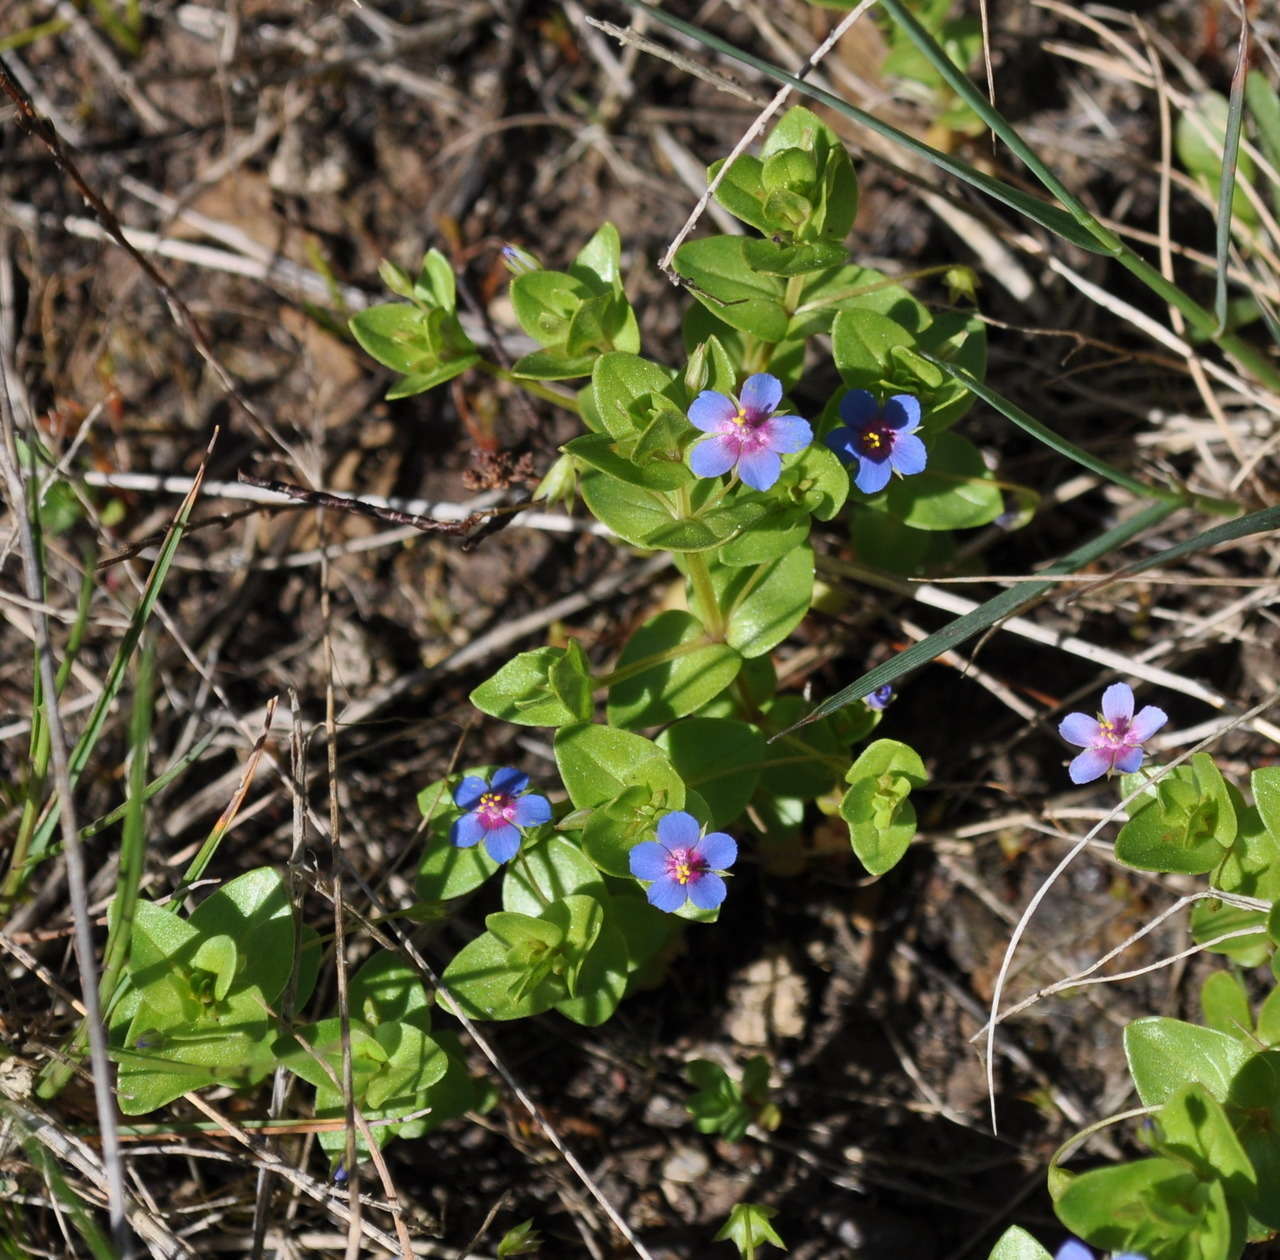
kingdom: Plantae
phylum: Tracheophyta
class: Magnoliopsida
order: Ericales
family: Primulaceae
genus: Lysimachia
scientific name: Lysimachia loeflingii
